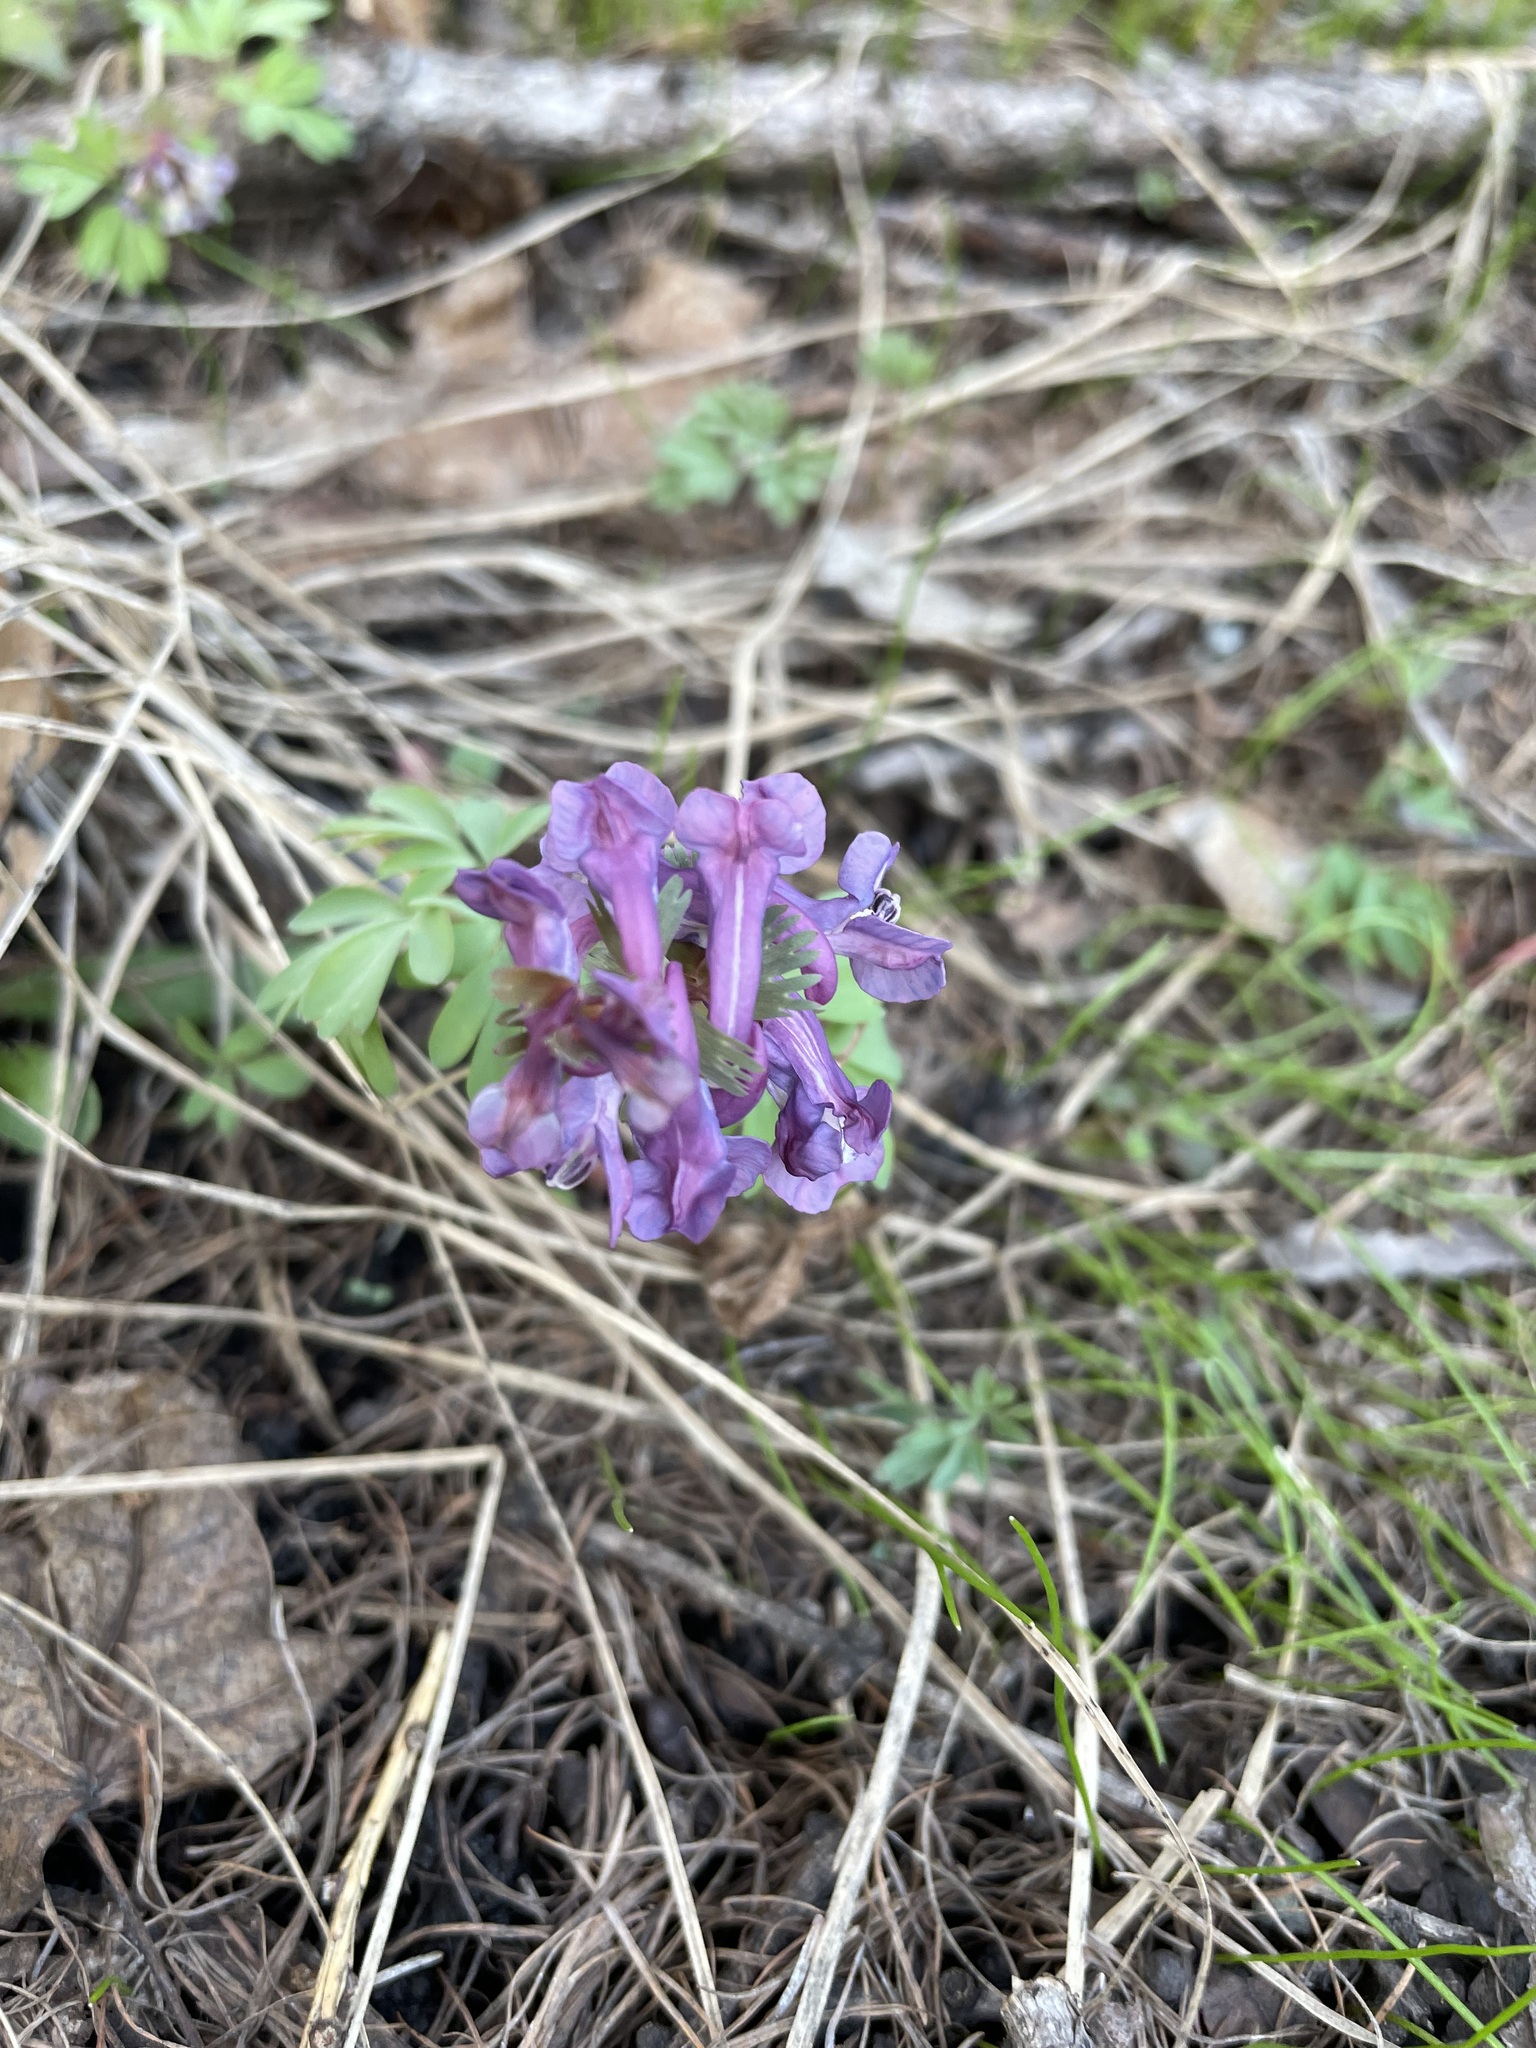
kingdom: Plantae
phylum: Tracheophyta
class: Magnoliopsida
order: Ranunculales
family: Papaveraceae
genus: Corydalis
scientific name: Corydalis solida
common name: Bird-in-a-bush
